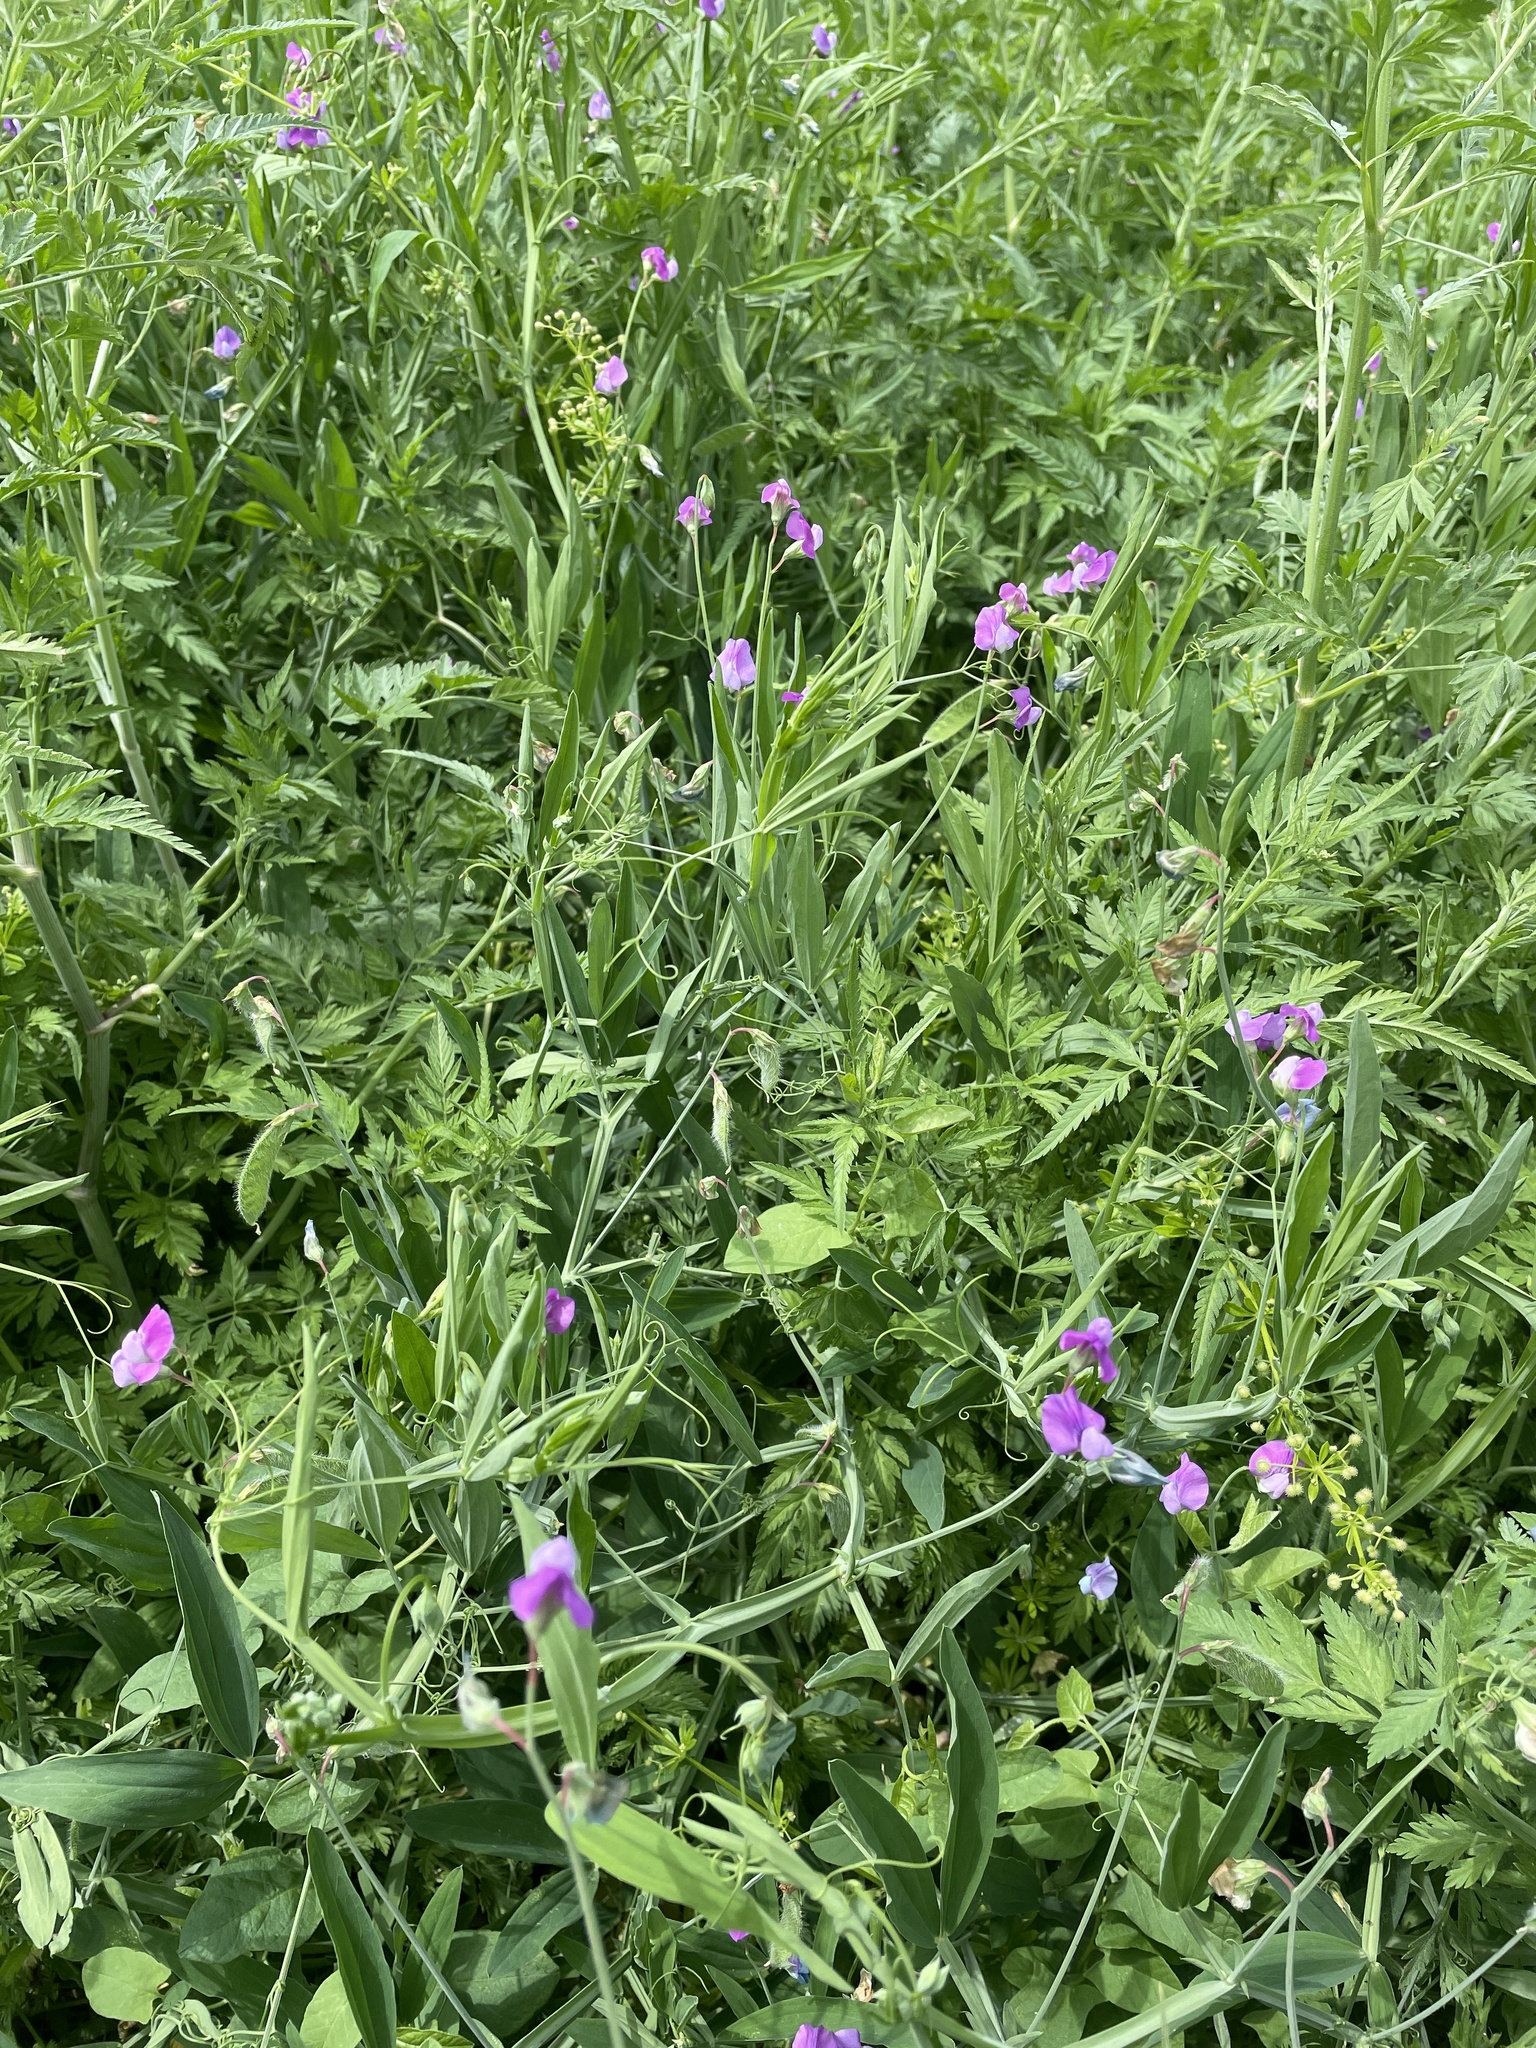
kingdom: Plantae
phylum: Tracheophyta
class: Magnoliopsida
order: Fabales
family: Fabaceae
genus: Lathyrus
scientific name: Lathyrus hirsutus
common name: Hairy vetchling
